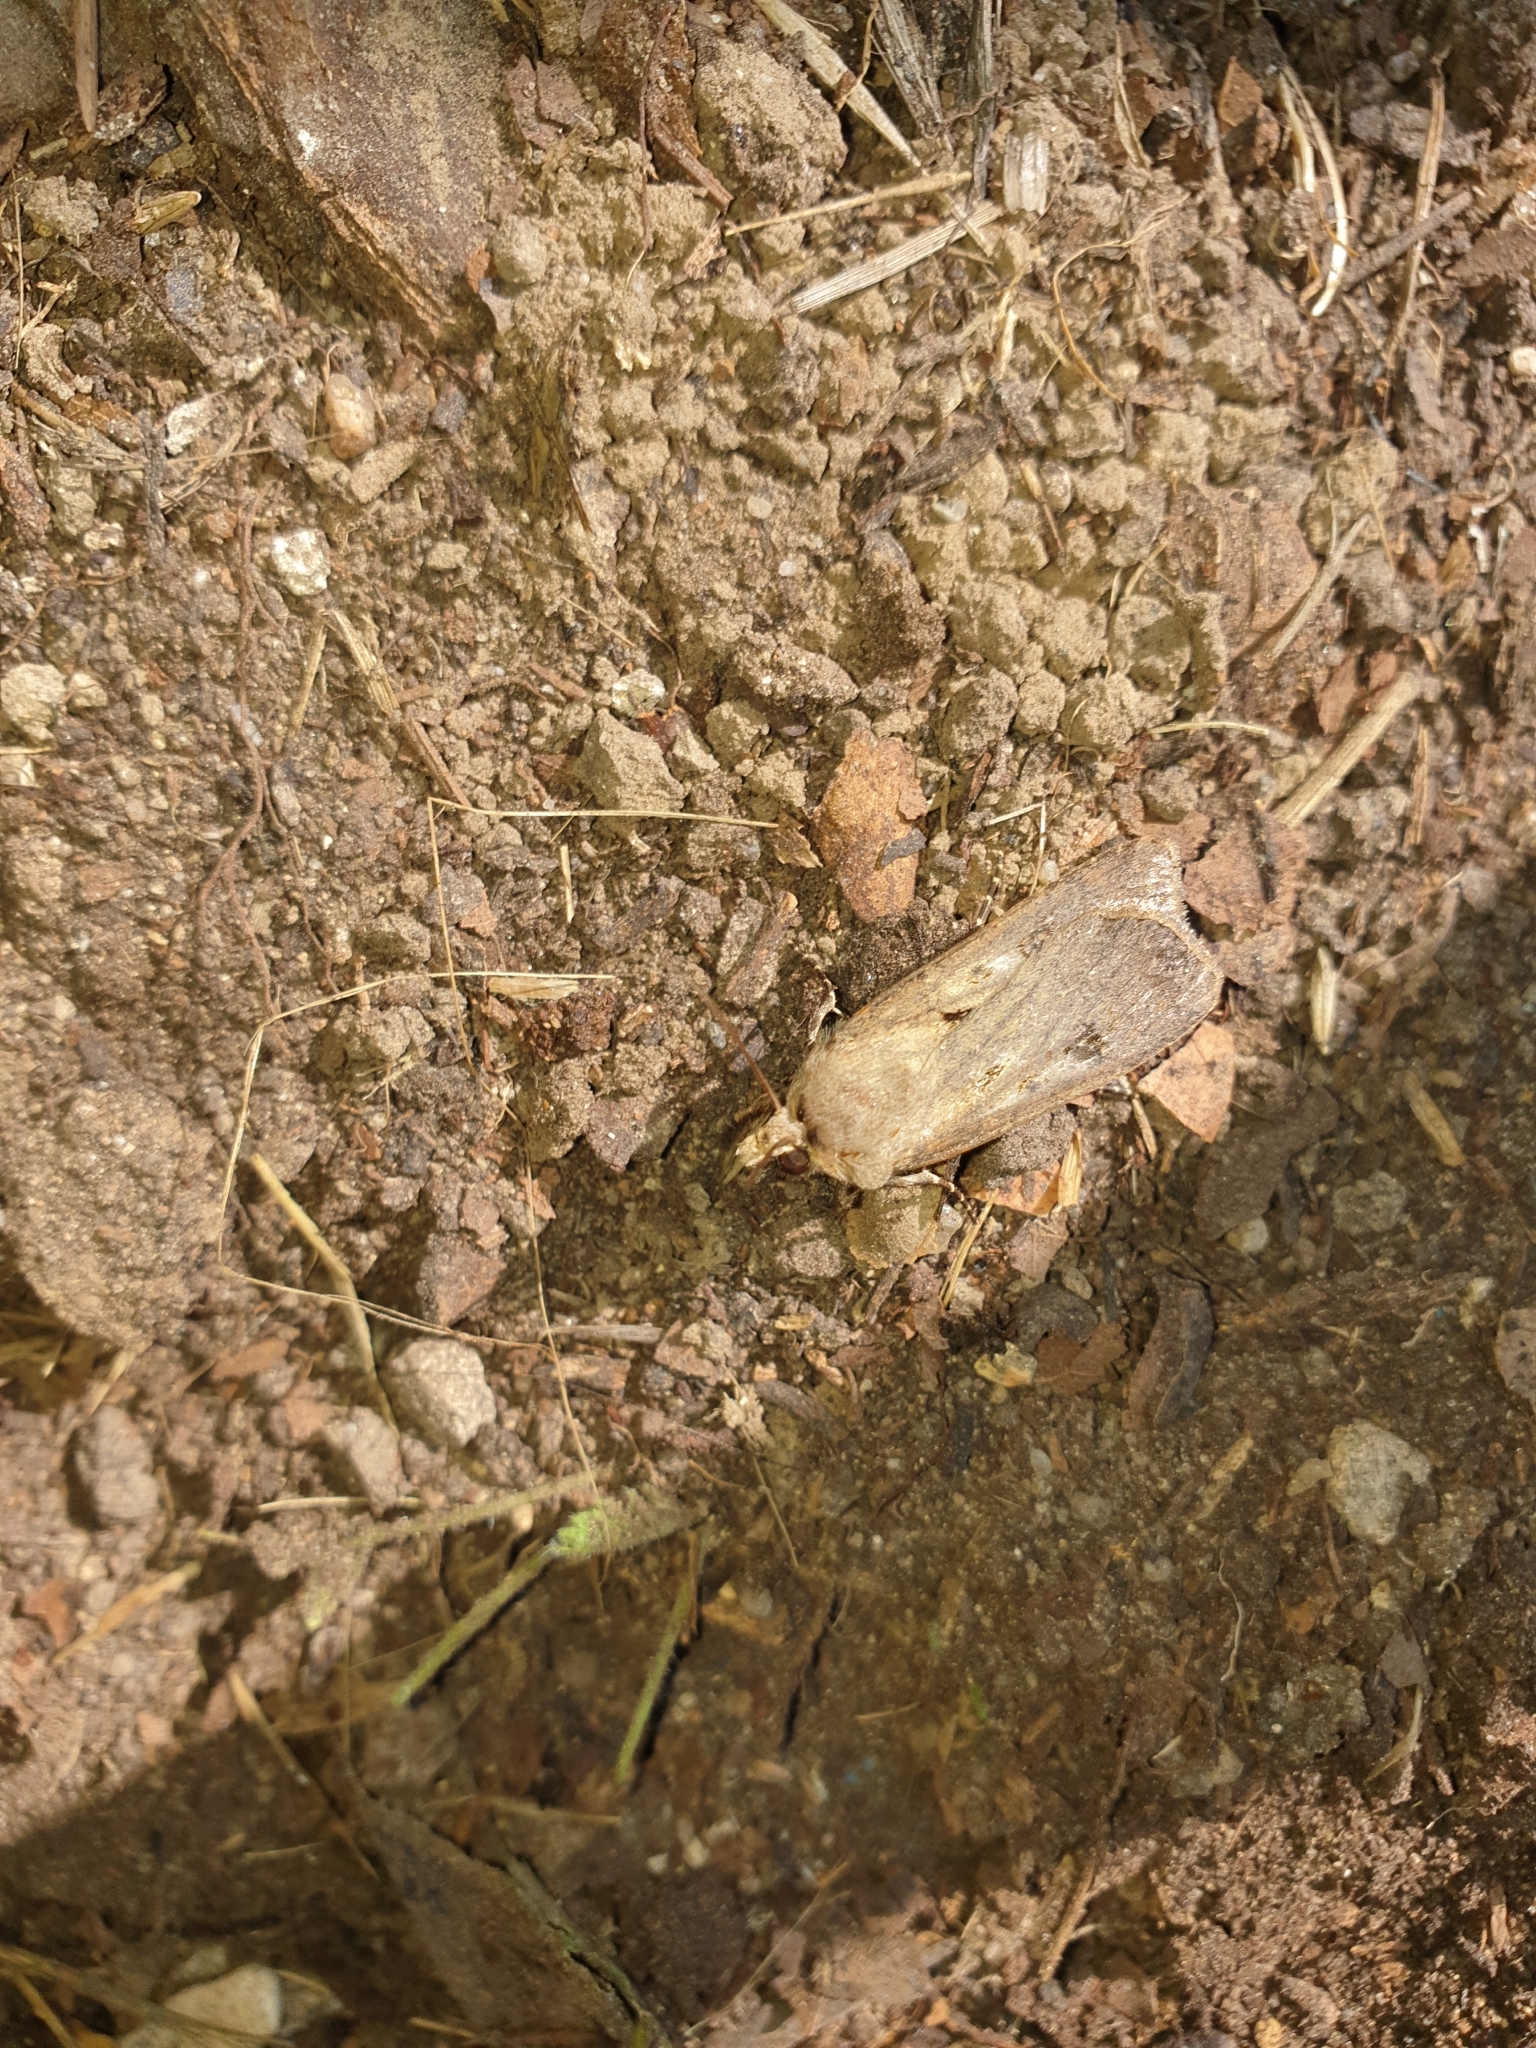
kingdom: Animalia
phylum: Arthropoda
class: Insecta
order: Lepidoptera
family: Noctuidae
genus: Agrotis
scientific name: Agrotis exclamationis
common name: Heart and dart
